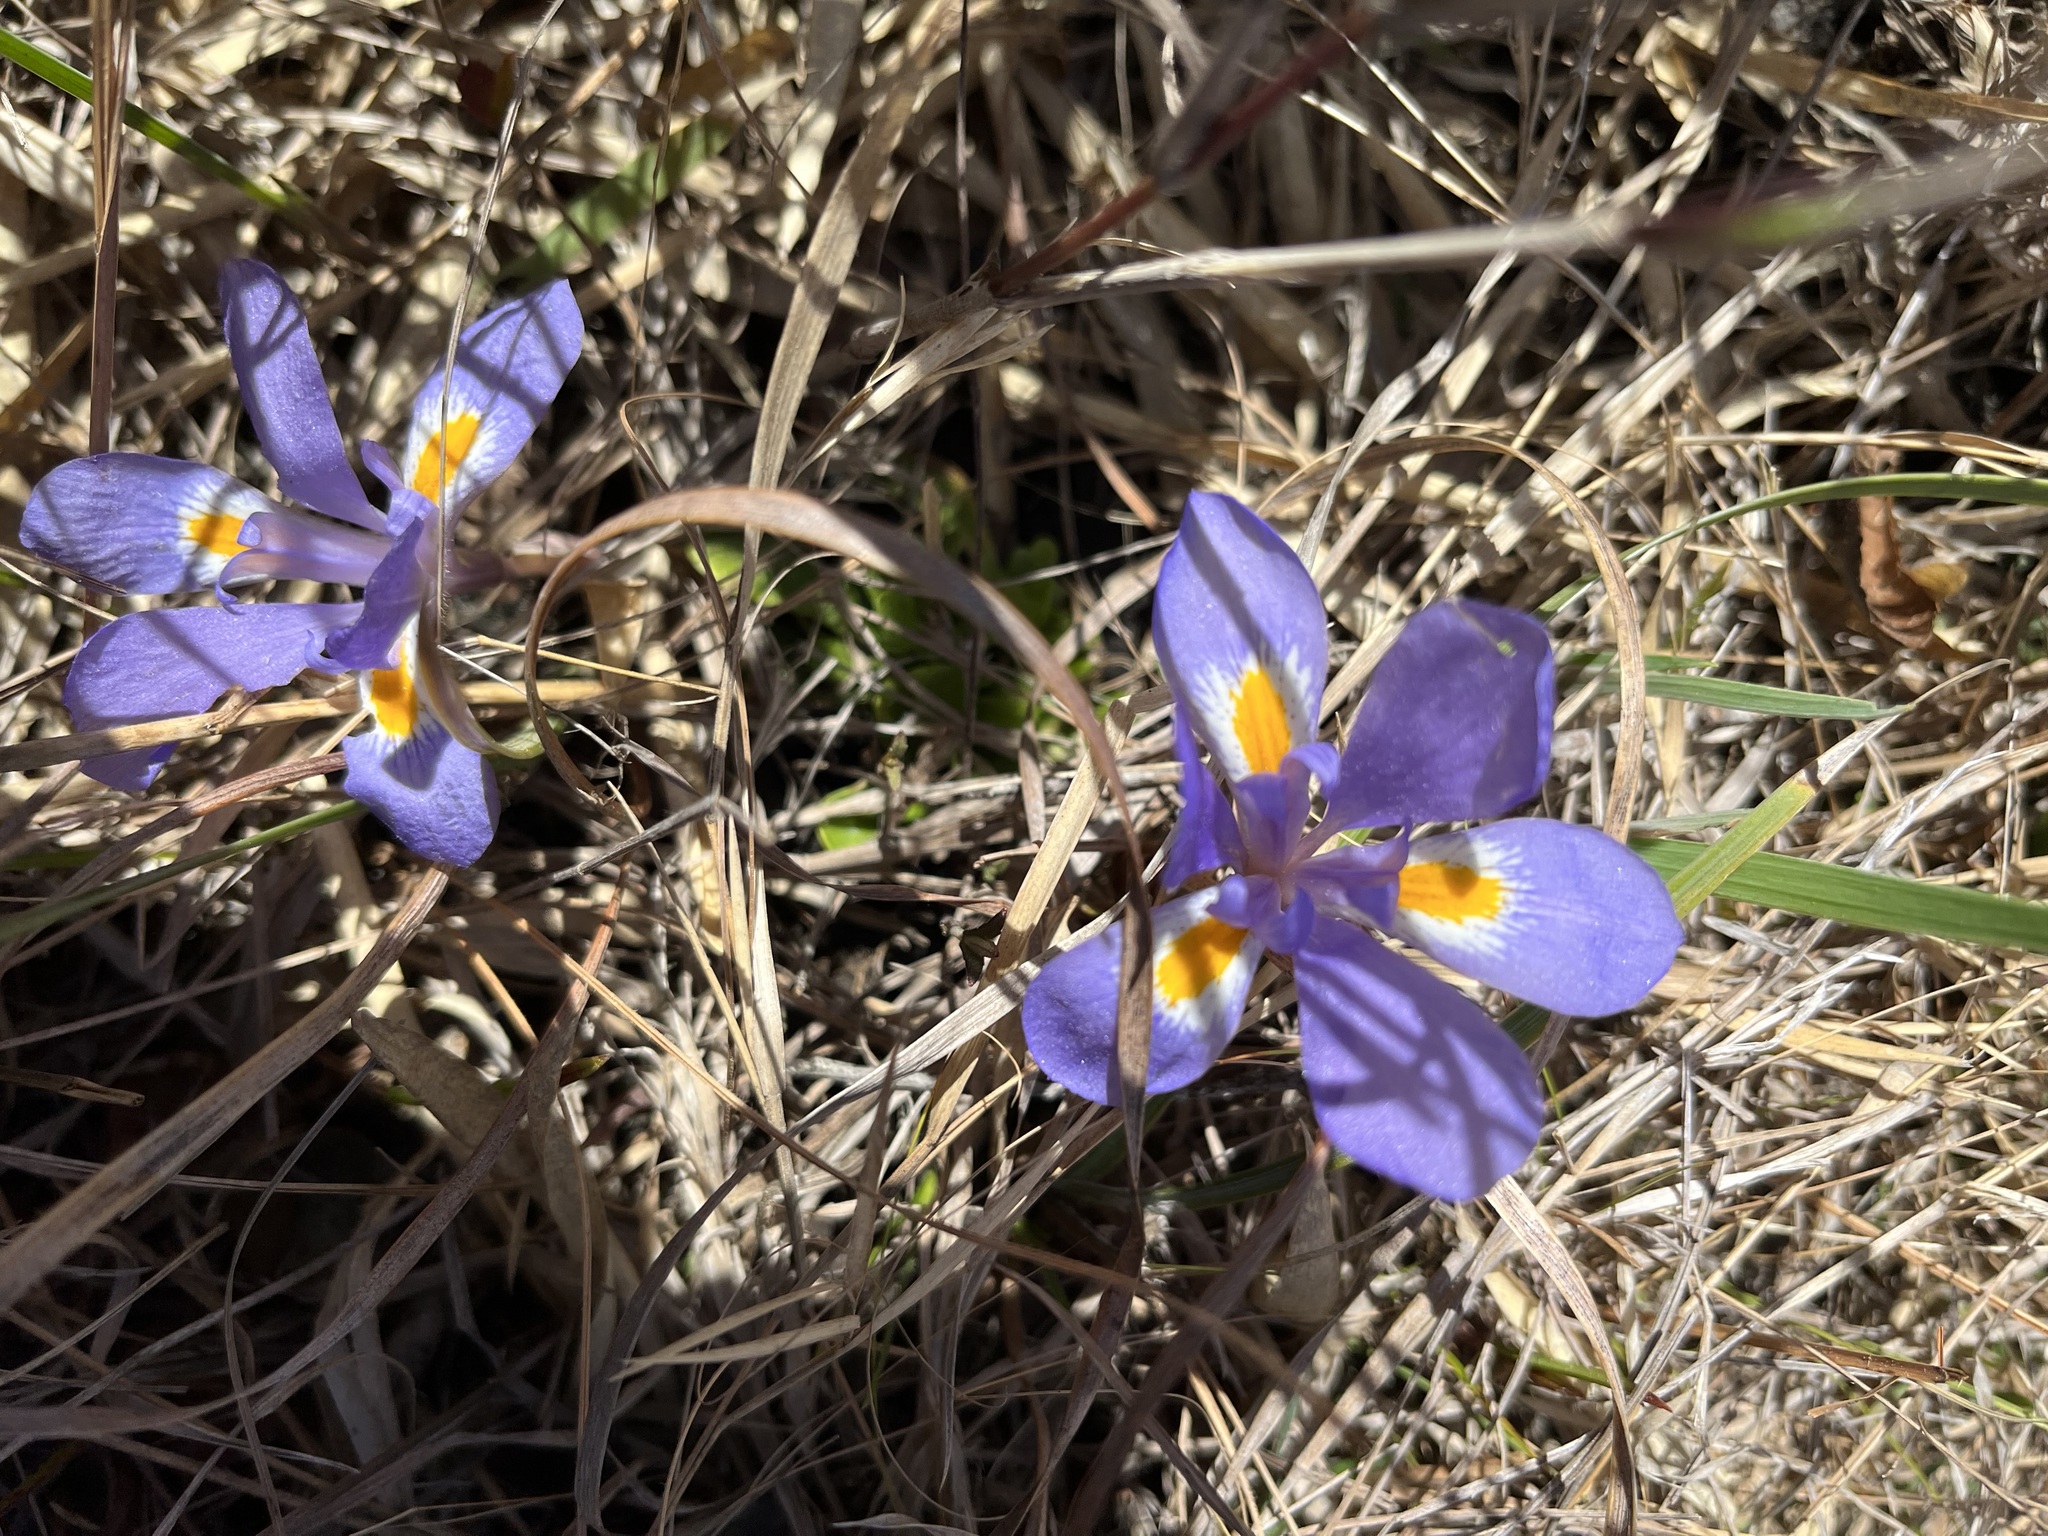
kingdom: Plantae
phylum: Tracheophyta
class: Liliopsida
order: Asparagales
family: Iridaceae
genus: Iris
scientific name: Iris verna
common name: Dwarf iris
